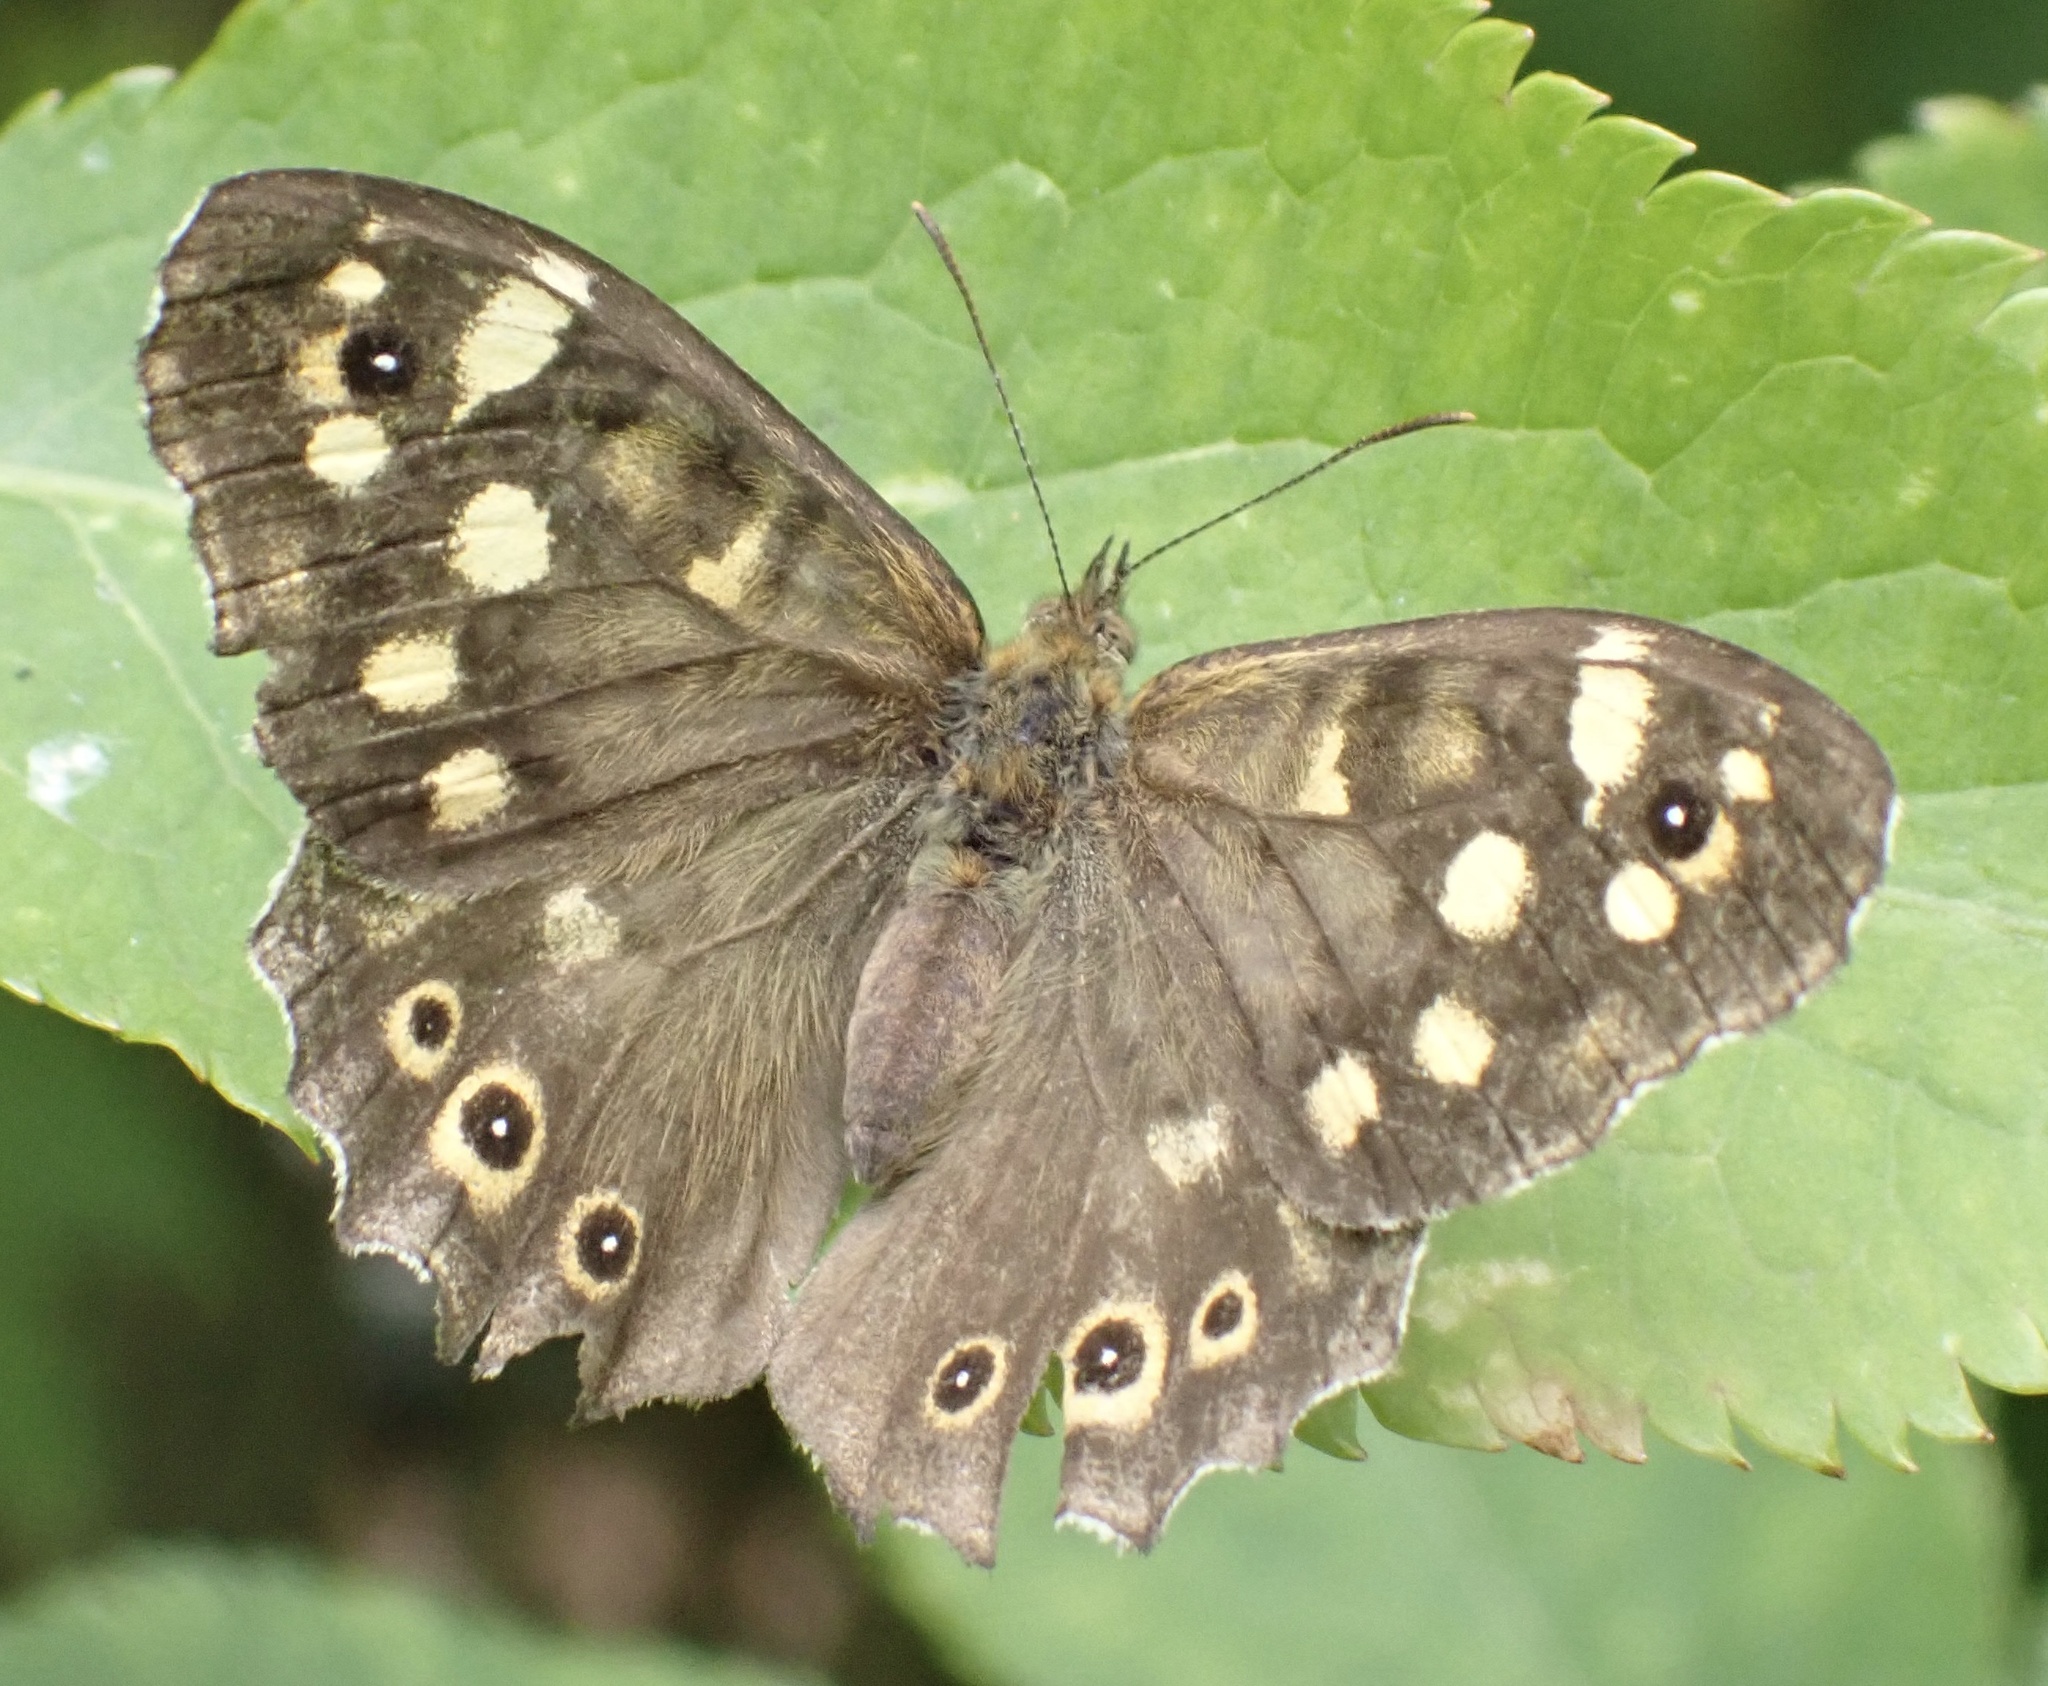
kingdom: Animalia
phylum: Arthropoda
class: Insecta
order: Lepidoptera
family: Nymphalidae
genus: Pararge
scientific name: Pararge aegeria
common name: Speckled wood
